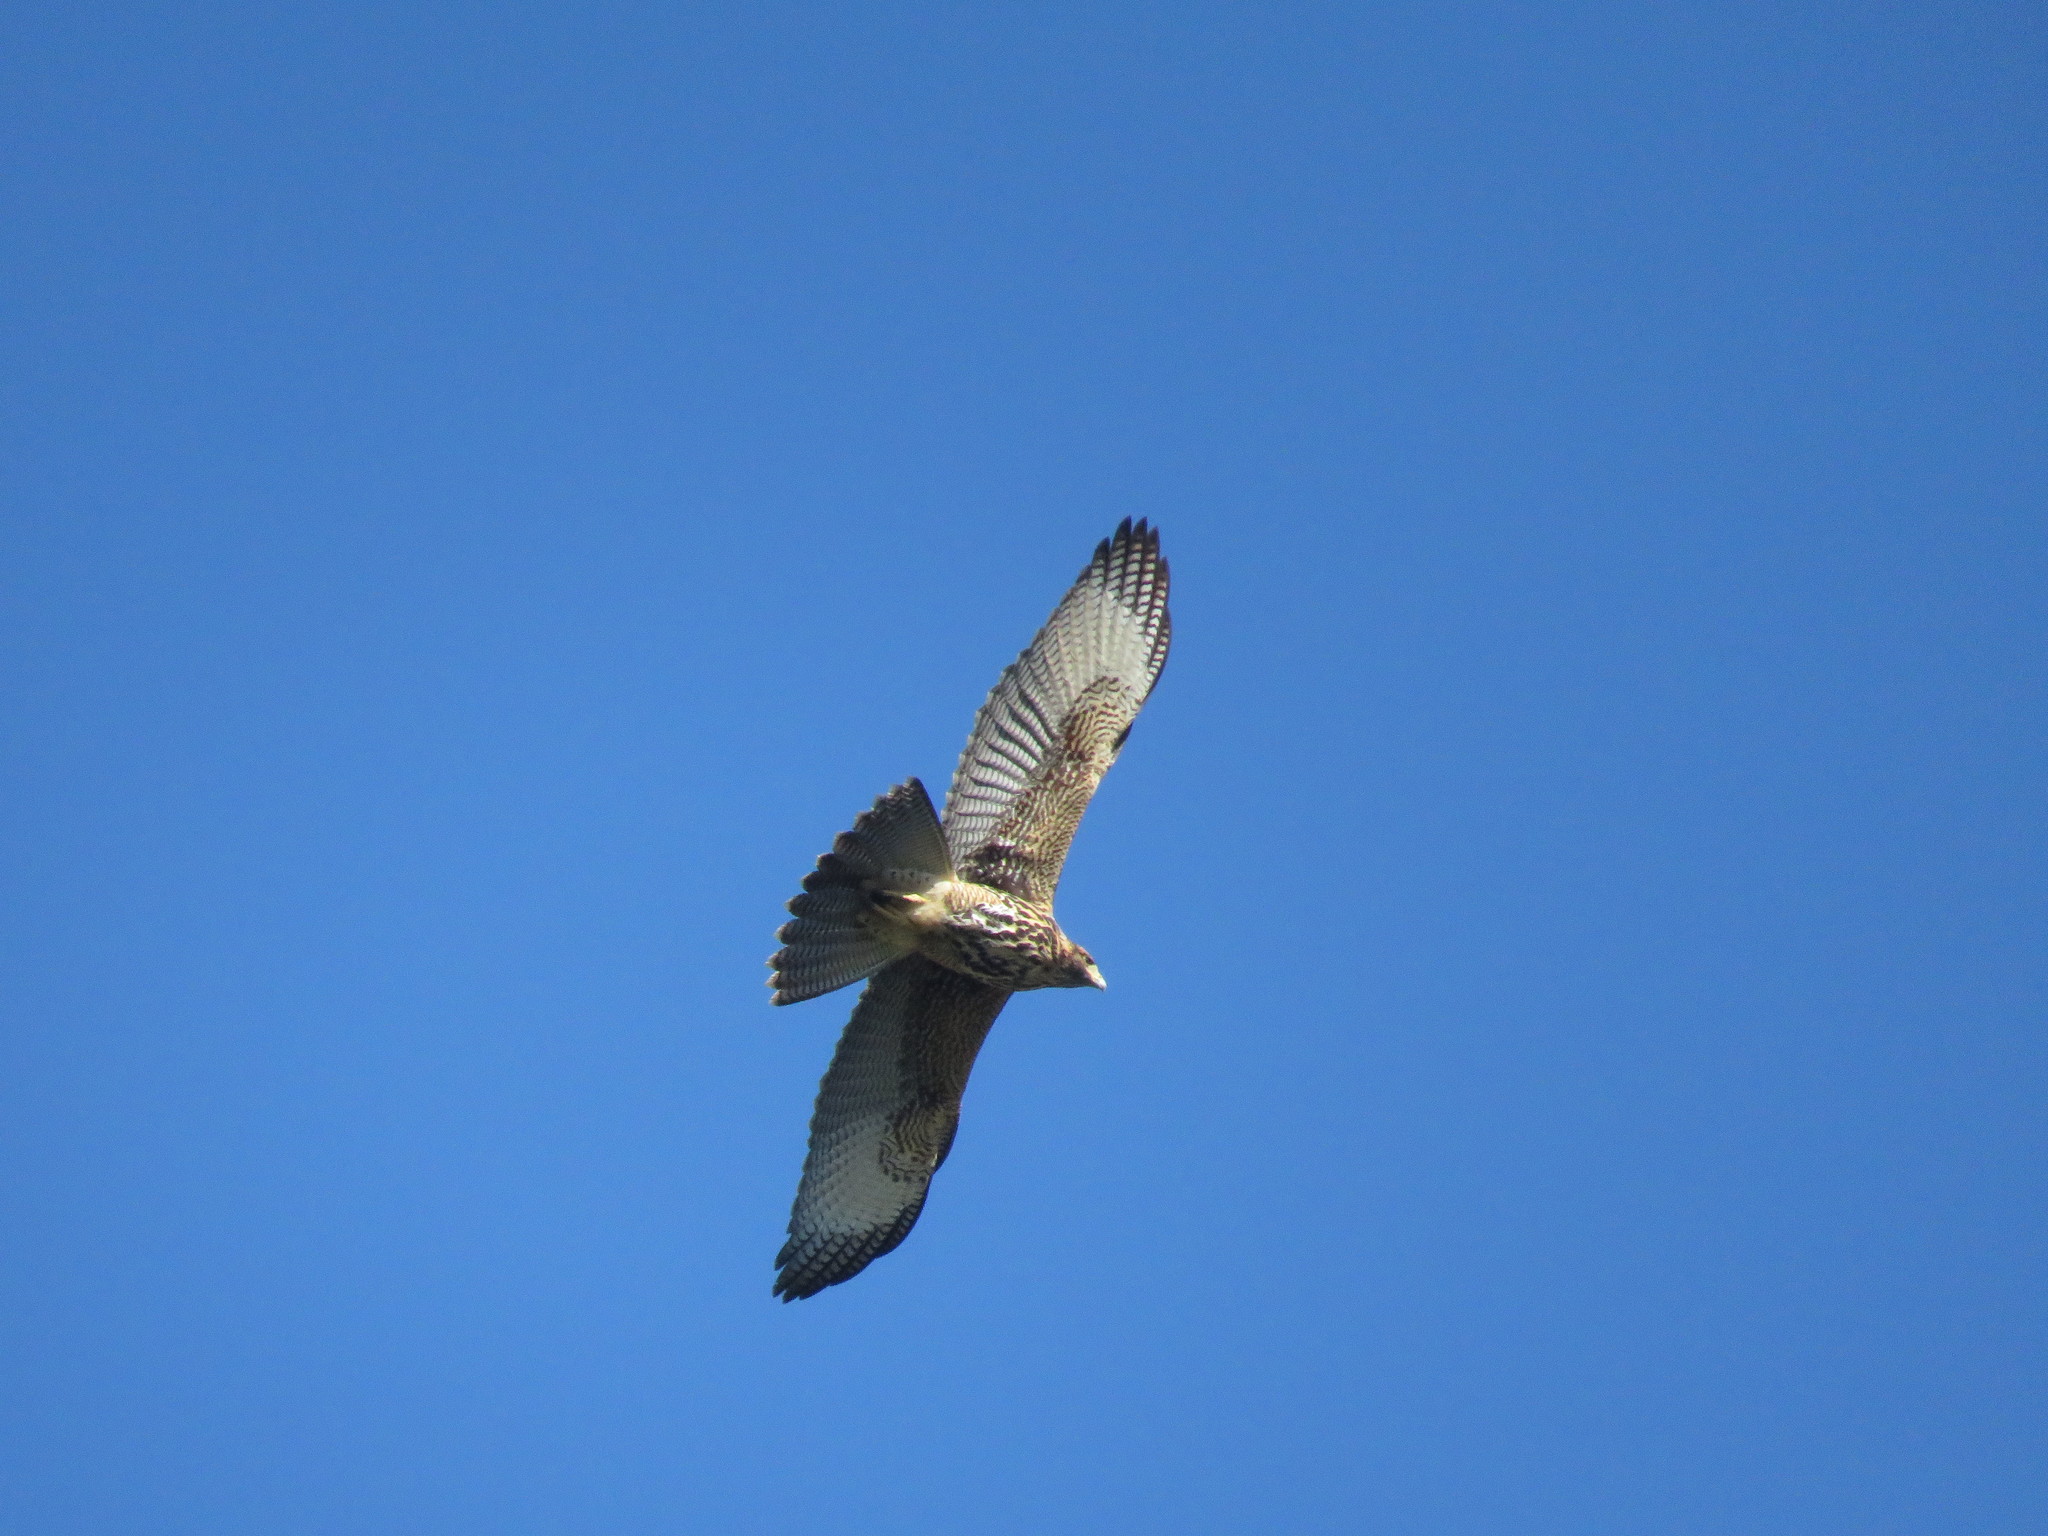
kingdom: Animalia
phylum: Chordata
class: Aves
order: Accipitriformes
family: Accipitridae
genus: Parabuteo
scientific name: Parabuteo unicinctus
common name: Harris's hawk
